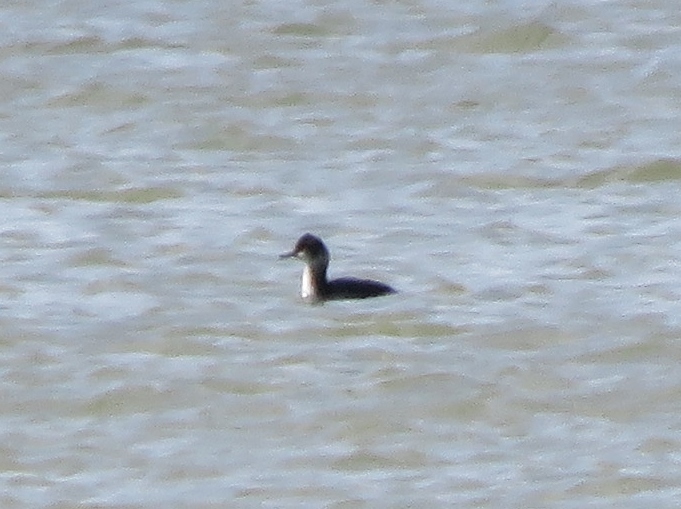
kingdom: Animalia
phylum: Chordata
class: Aves
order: Podicipediformes
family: Podicipedidae
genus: Podiceps
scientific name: Podiceps nigricollis
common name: Black-necked grebe
